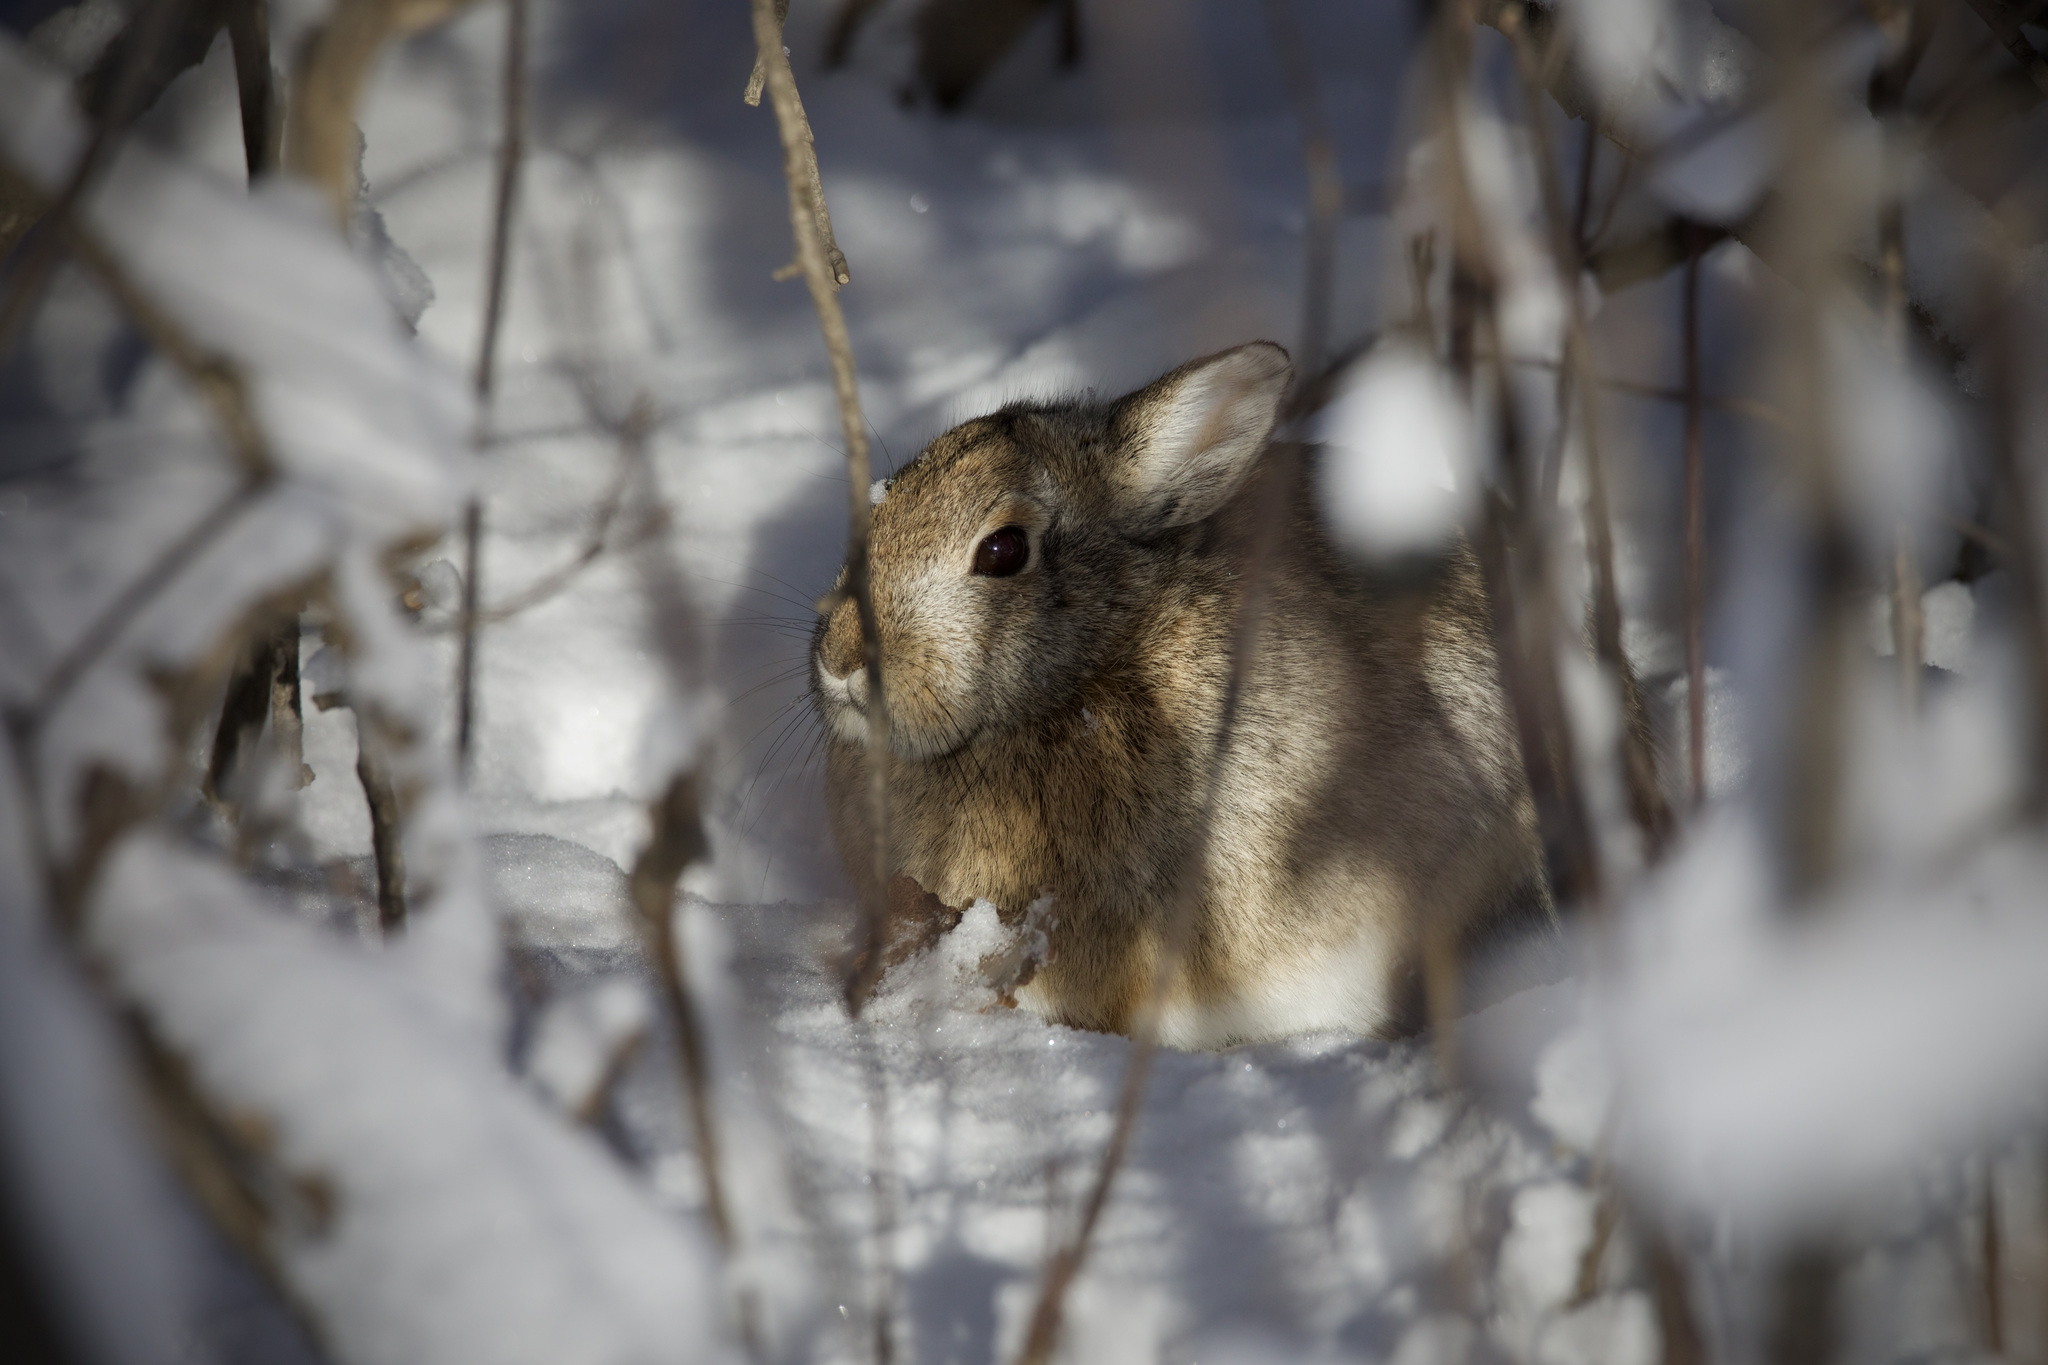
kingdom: Animalia
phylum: Chordata
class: Mammalia
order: Lagomorpha
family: Leporidae
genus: Sylvilagus
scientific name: Sylvilagus nuttallii
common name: Mountain cottontail
